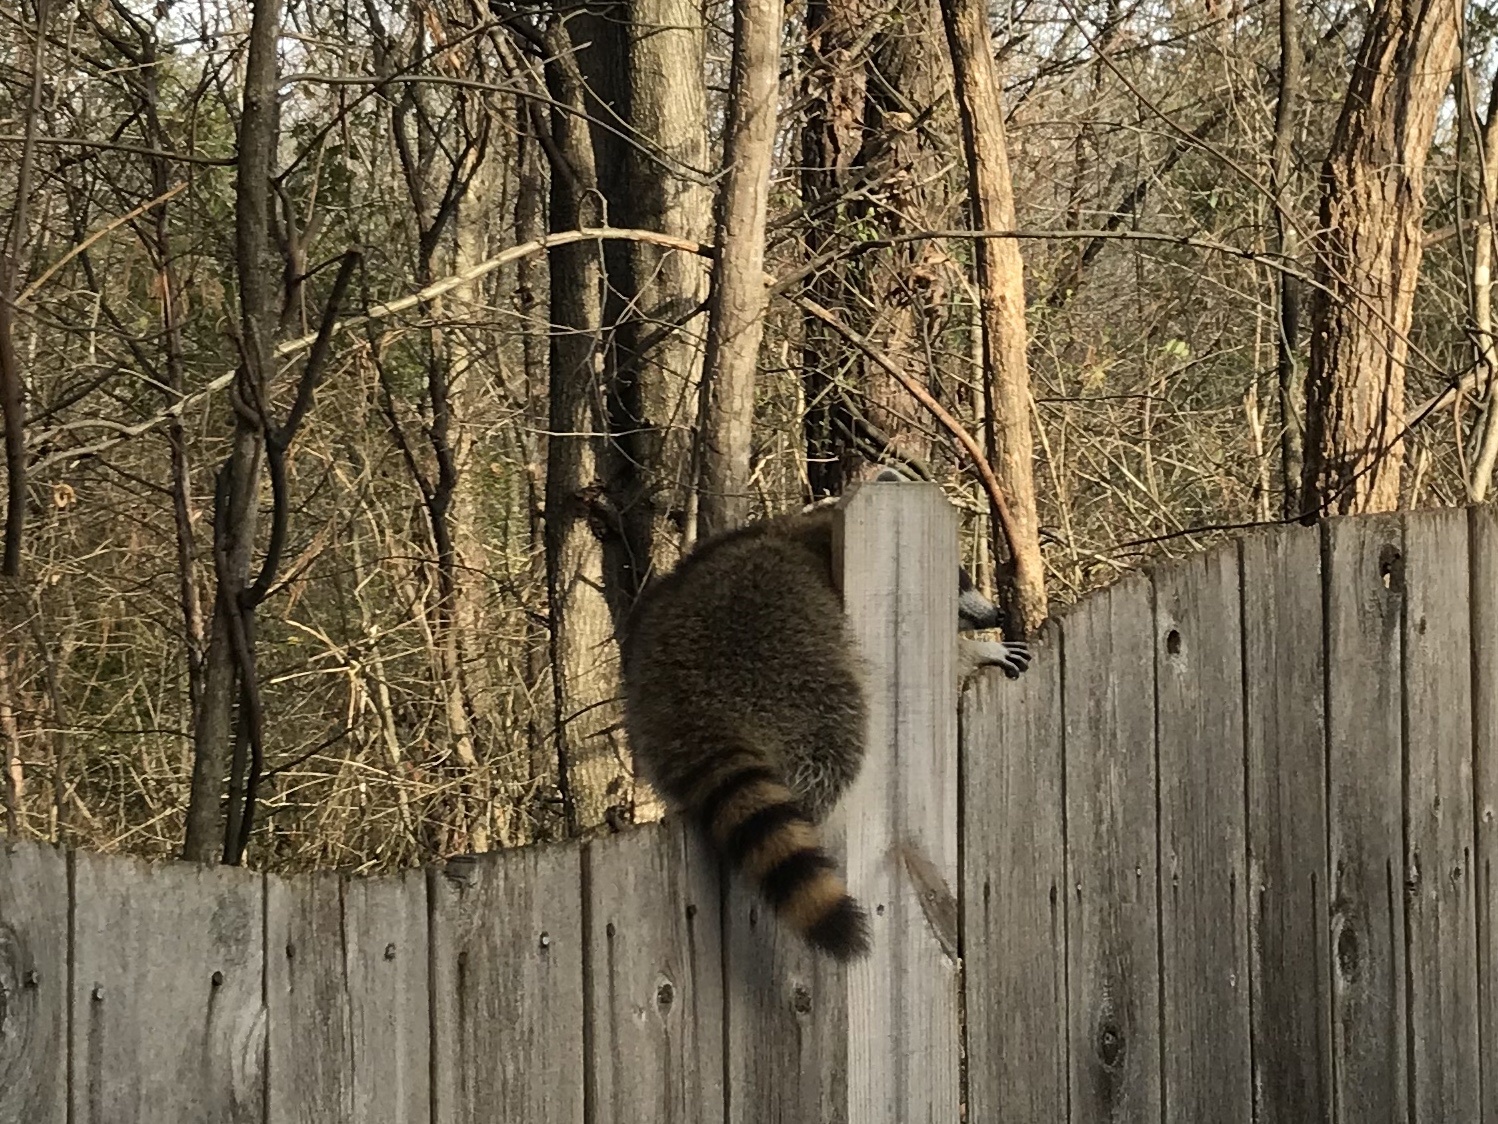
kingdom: Animalia
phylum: Chordata
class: Mammalia
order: Carnivora
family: Procyonidae
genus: Procyon
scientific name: Procyon lotor
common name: Raccoon
